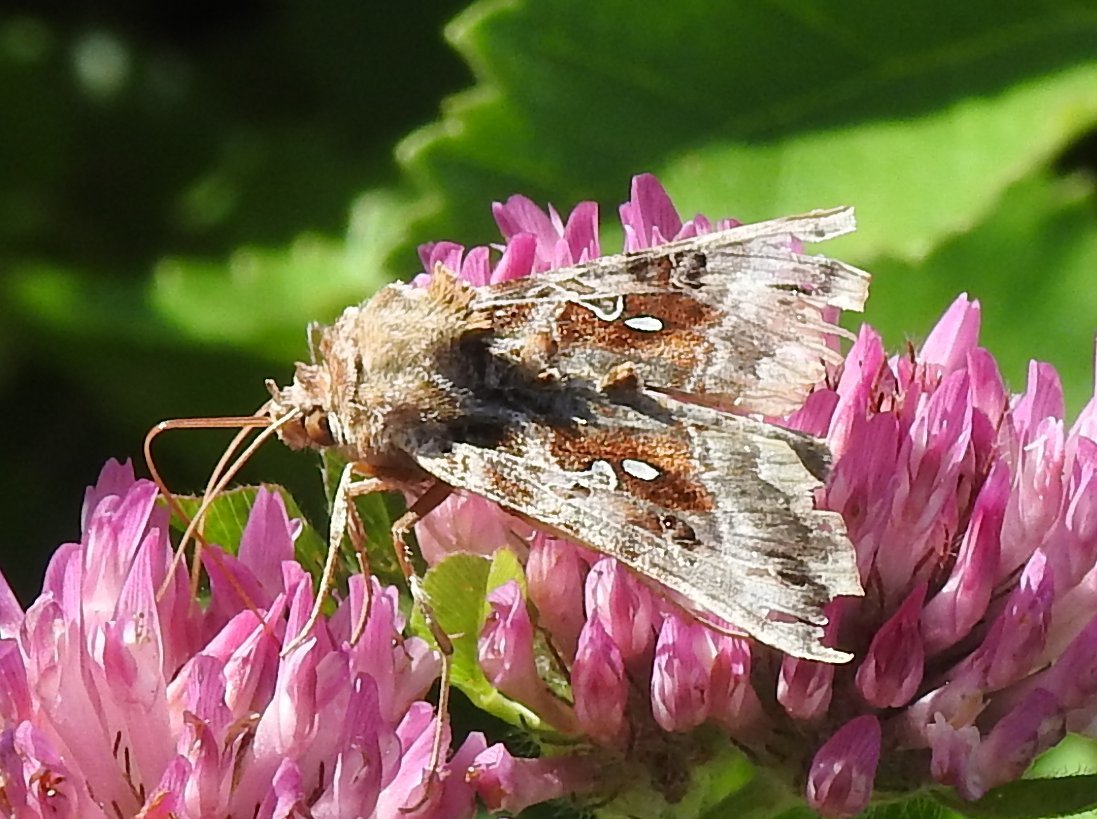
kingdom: Animalia
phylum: Arthropoda
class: Insecta
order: Lepidoptera
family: Noctuidae
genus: Autographa
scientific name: Autographa pulchrina
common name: Beautiful golden y
